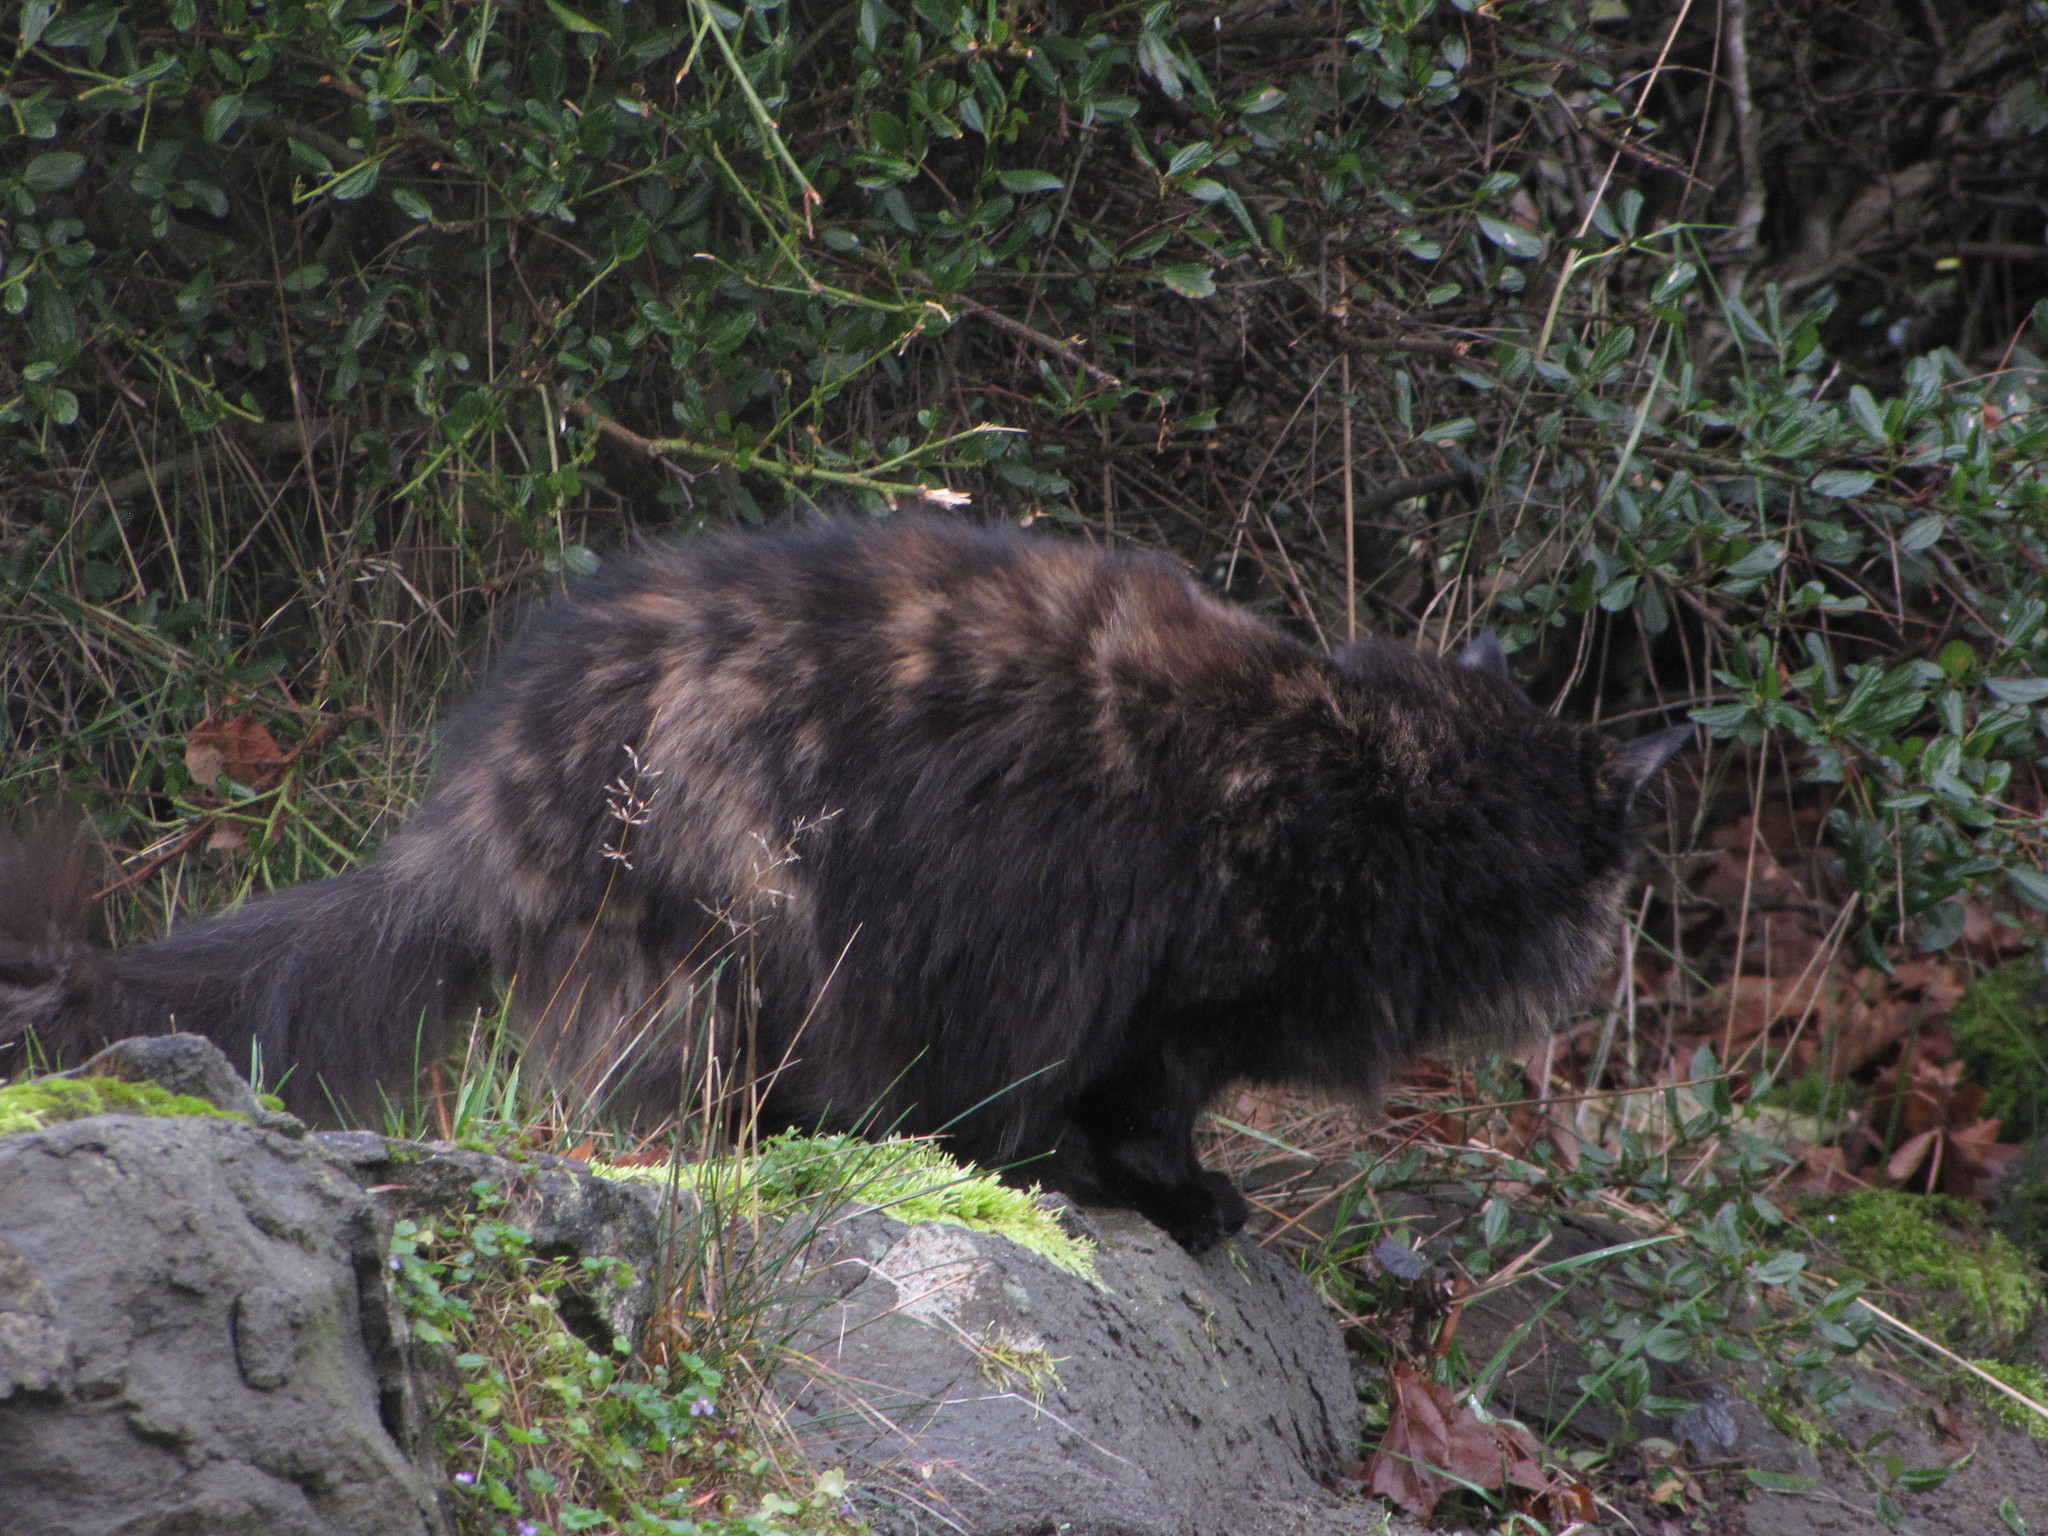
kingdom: Animalia
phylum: Chordata
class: Mammalia
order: Carnivora
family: Felidae
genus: Felis
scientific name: Felis catus
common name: Domestic cat
